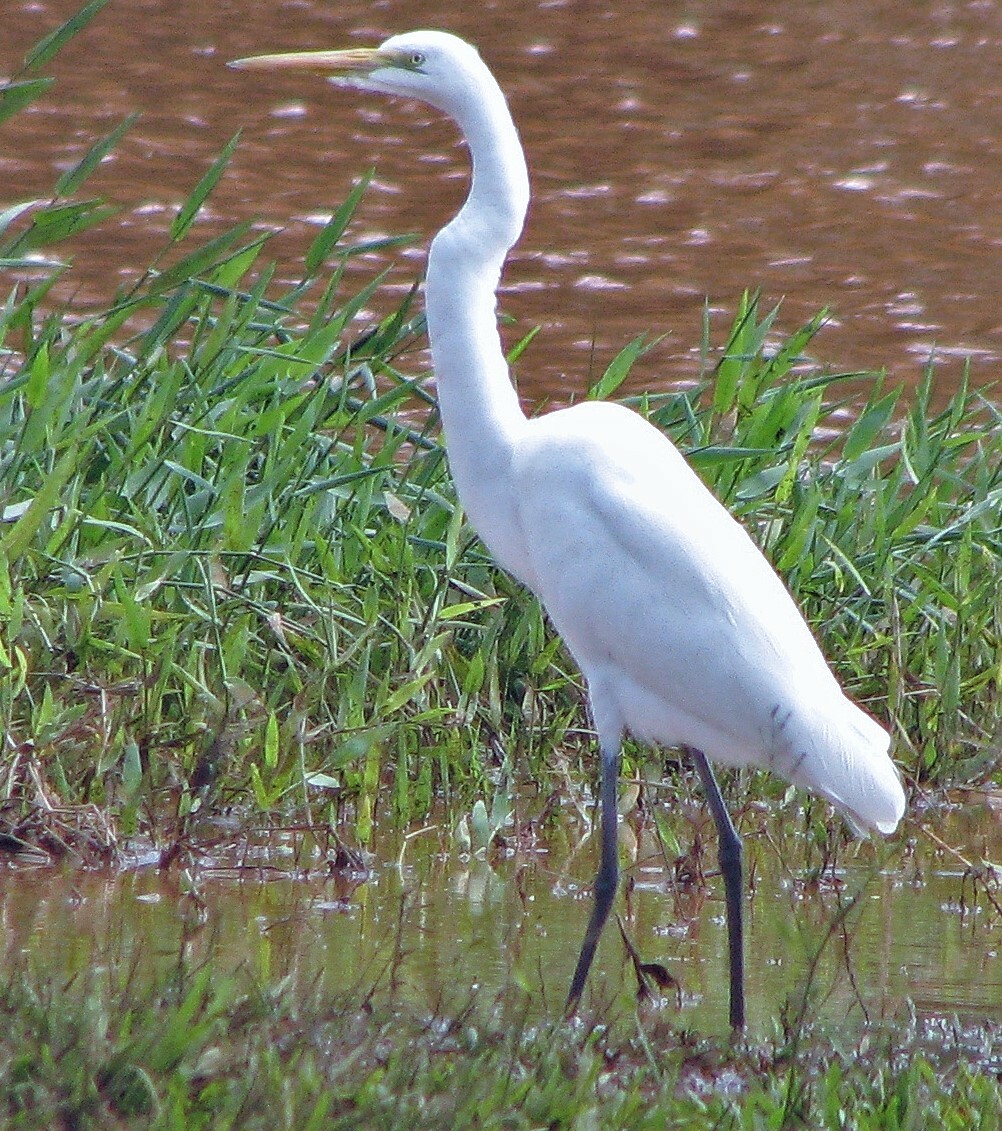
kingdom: Animalia
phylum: Chordata
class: Aves
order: Pelecaniformes
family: Ardeidae
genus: Ardea
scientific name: Ardea alba
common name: Great egret
